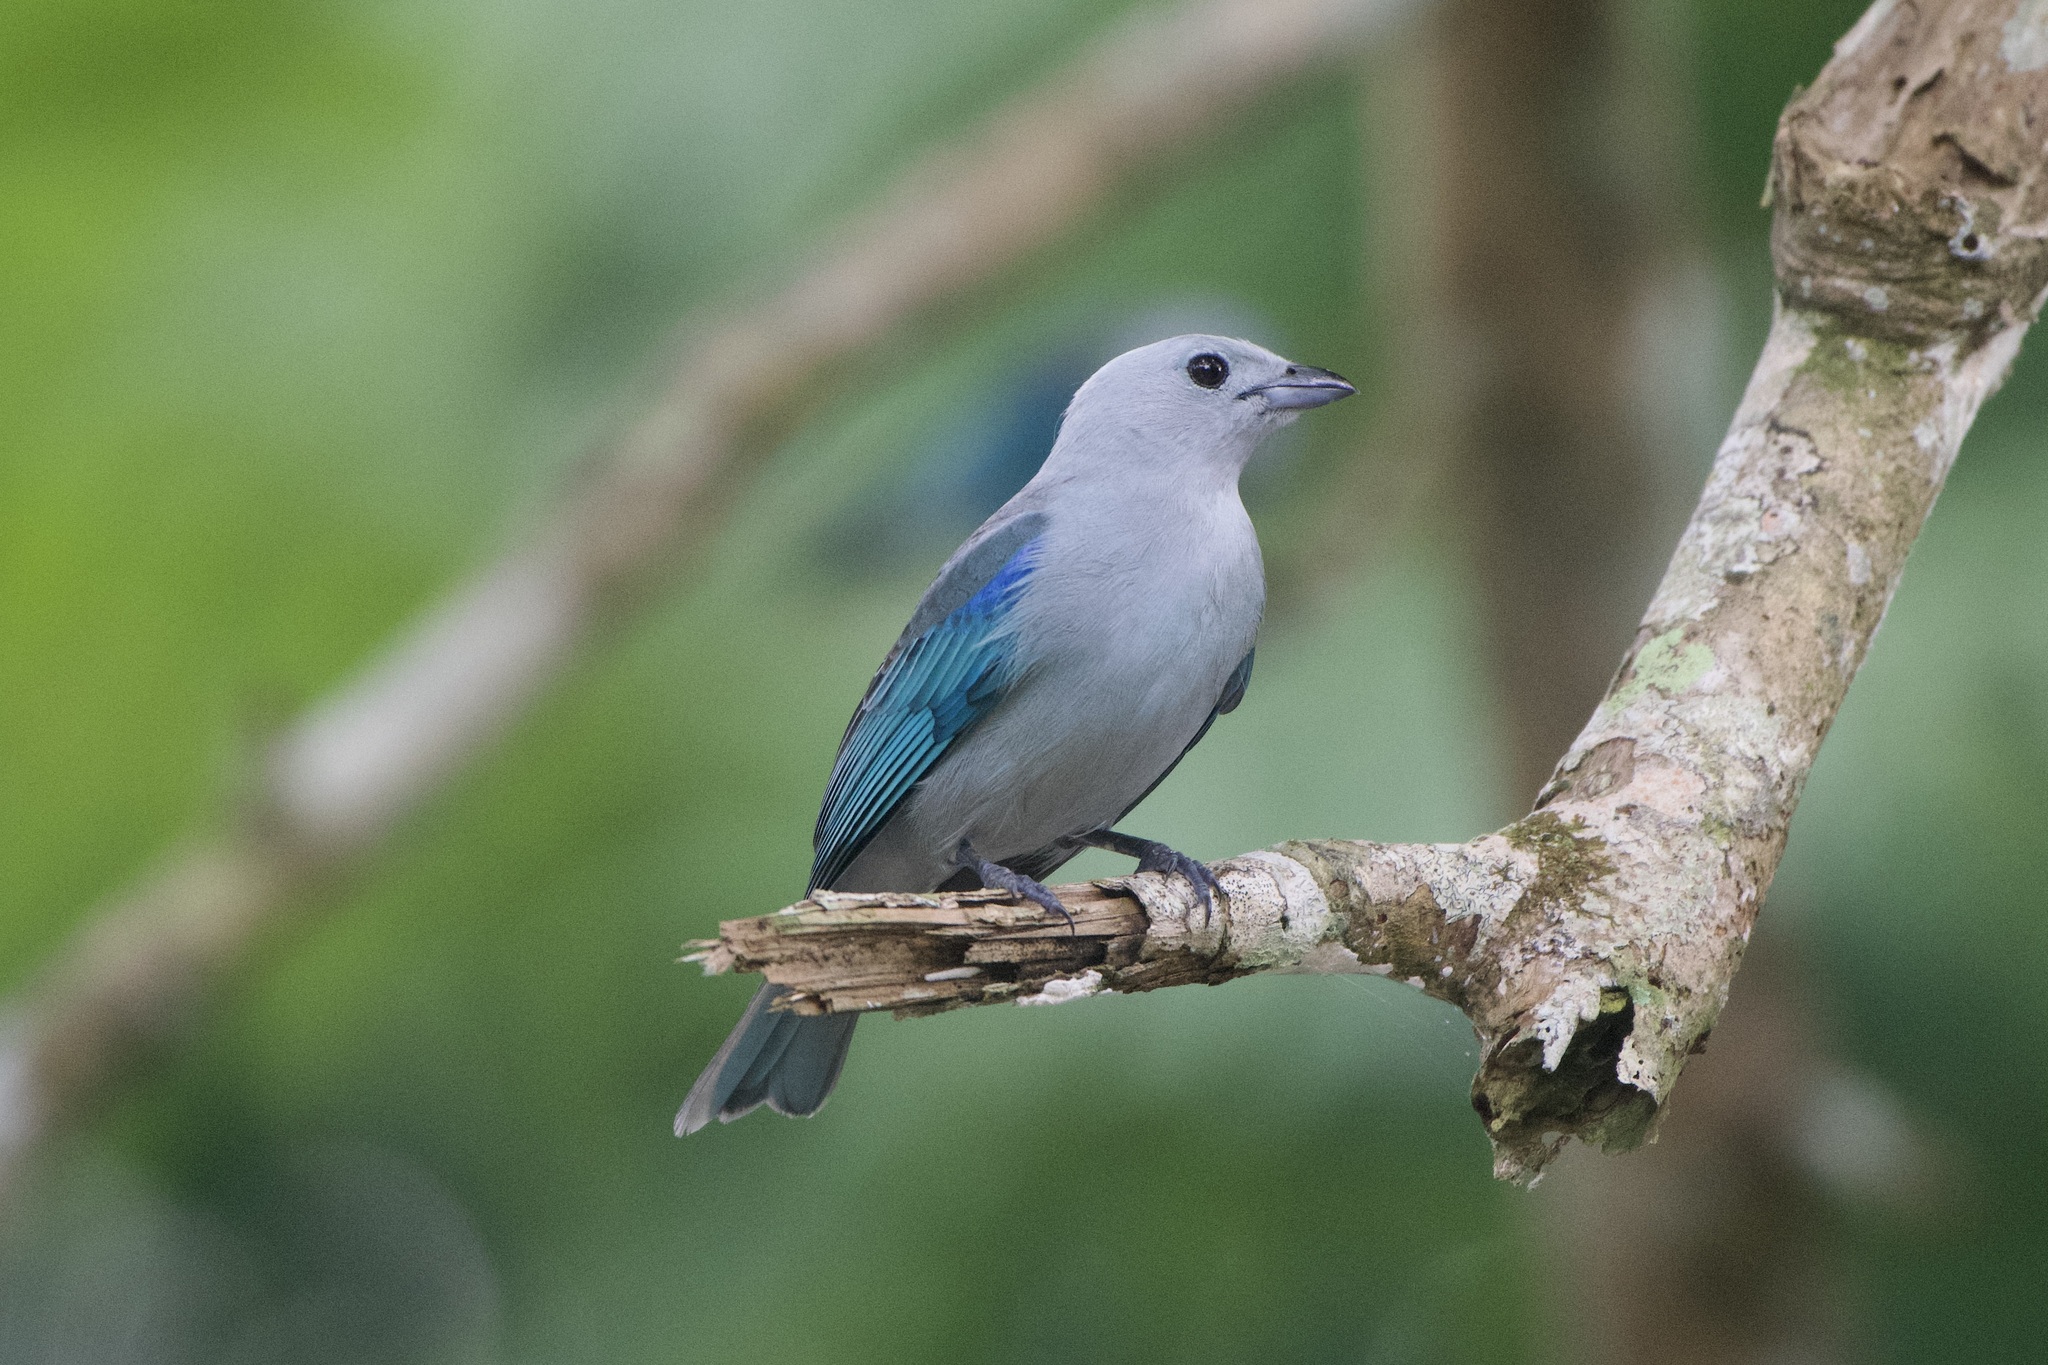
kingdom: Animalia
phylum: Chordata
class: Aves
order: Passeriformes
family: Thraupidae
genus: Thraupis
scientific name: Thraupis episcopus
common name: Blue-grey tanager
